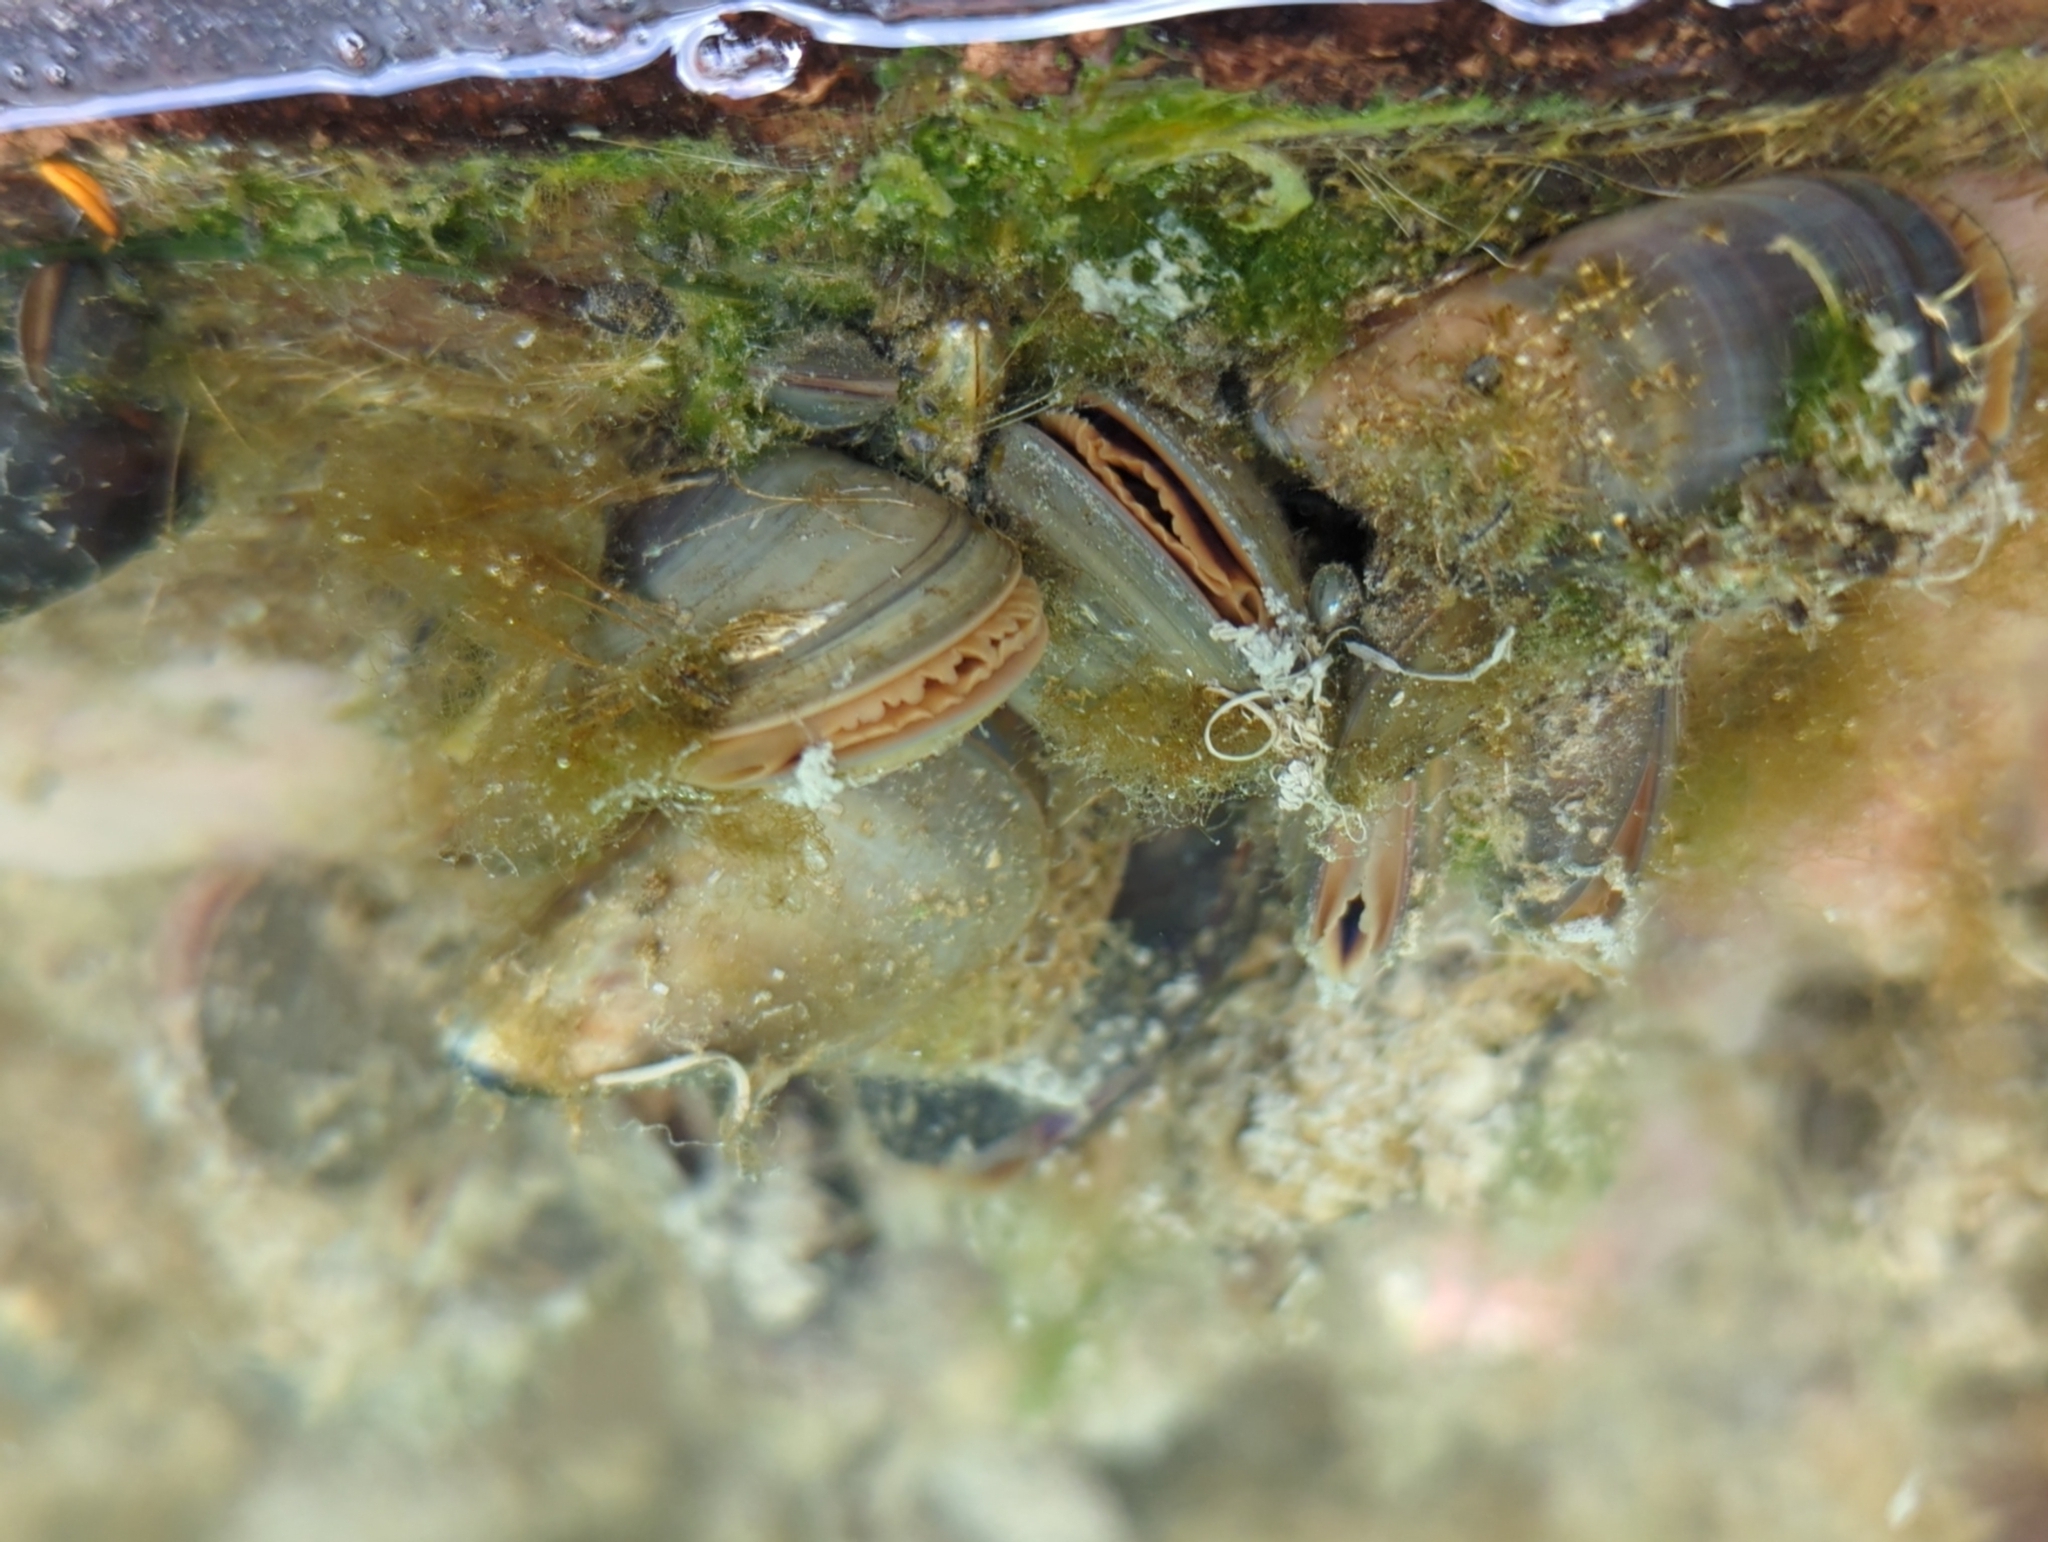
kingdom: Animalia
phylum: Mollusca
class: Bivalvia
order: Mytilida
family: Mytilidae
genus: Mytilus
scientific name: Mytilus trossulus
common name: Northern blue mussel
